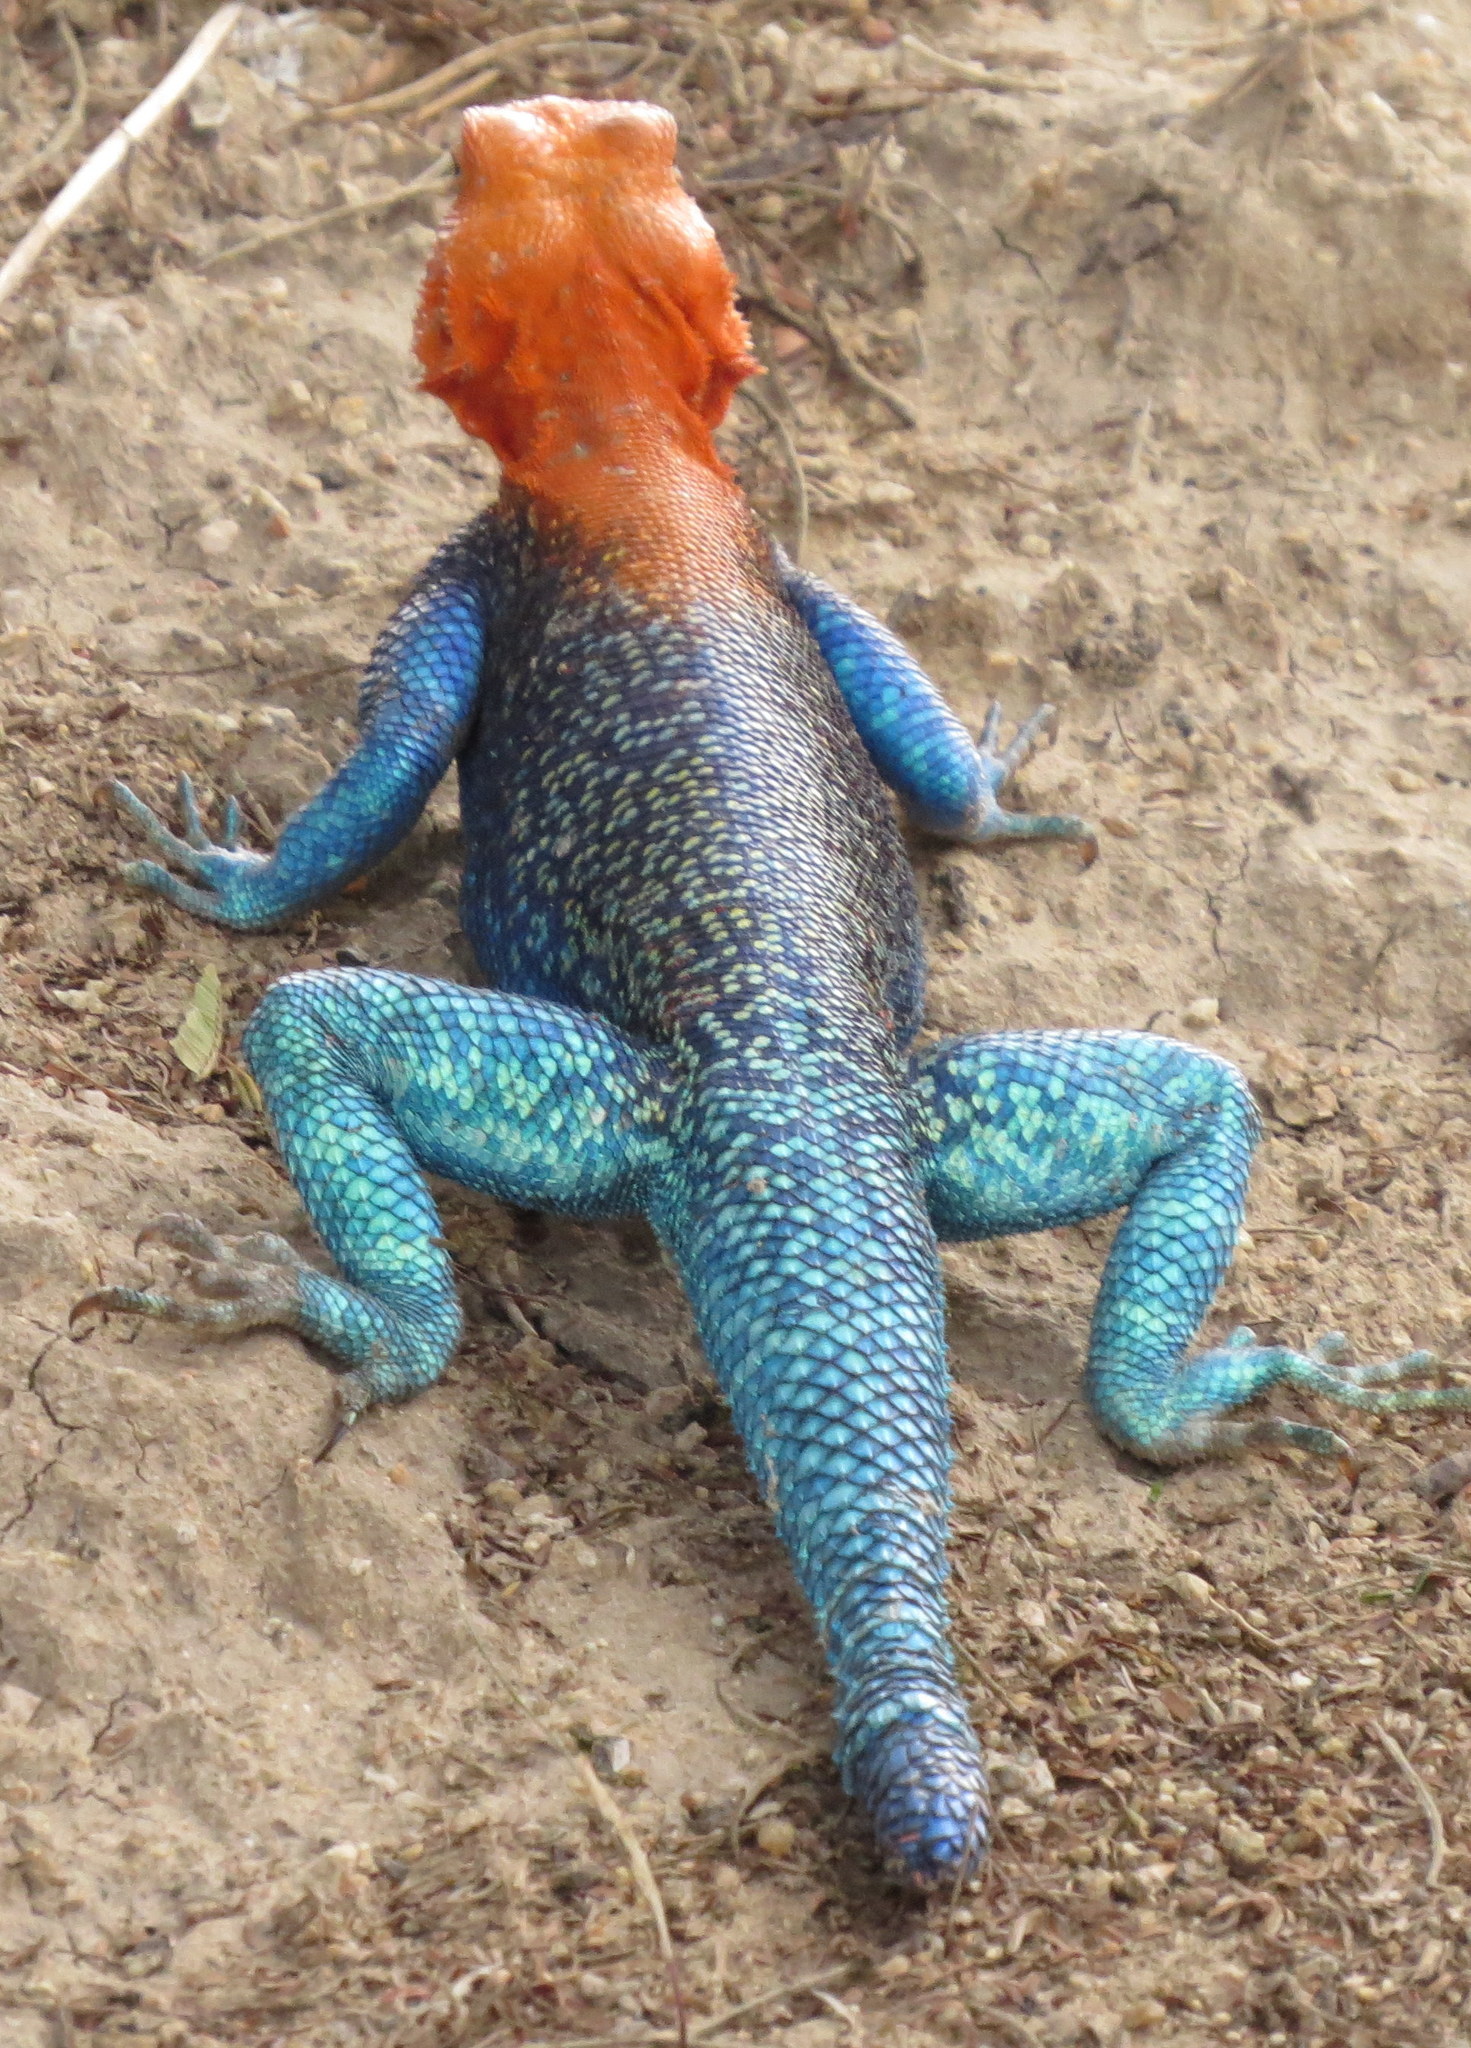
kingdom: Animalia
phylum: Chordata
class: Squamata
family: Agamidae
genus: Agama
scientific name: Agama dodomae
